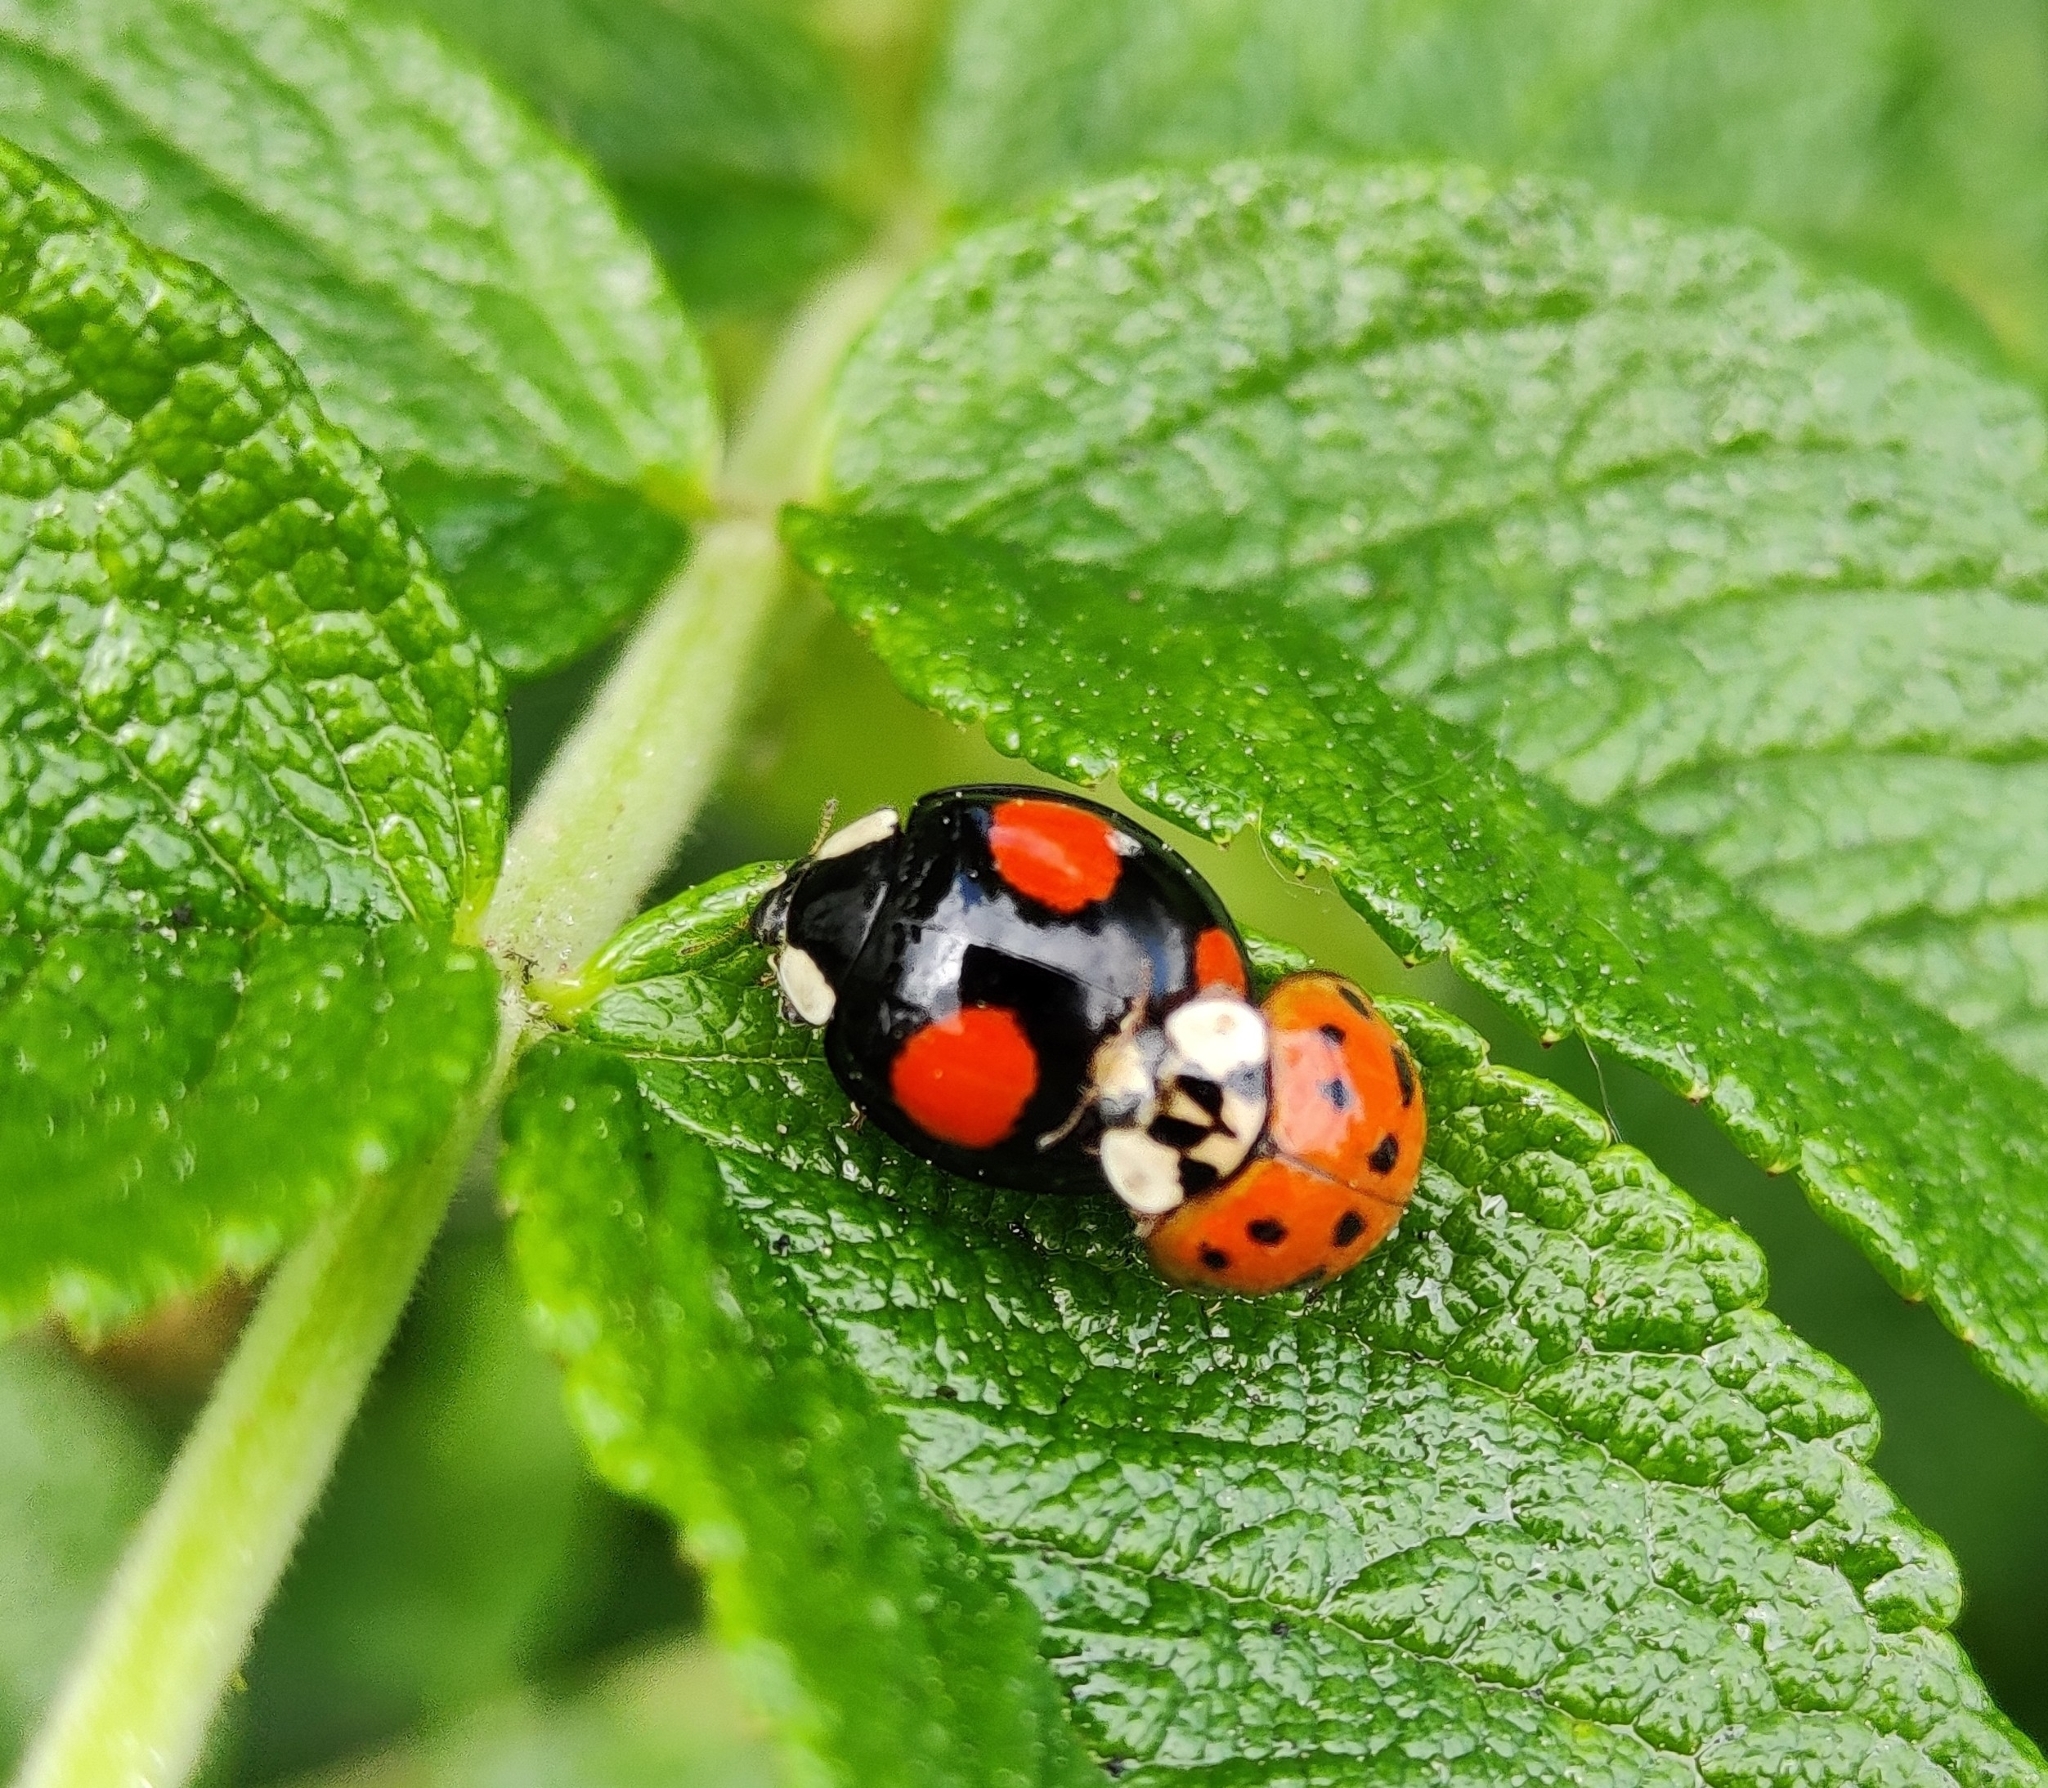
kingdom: Animalia
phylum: Arthropoda
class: Insecta
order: Coleoptera
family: Coccinellidae
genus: Harmonia
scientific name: Harmonia axyridis
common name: Harlequin ladybird
